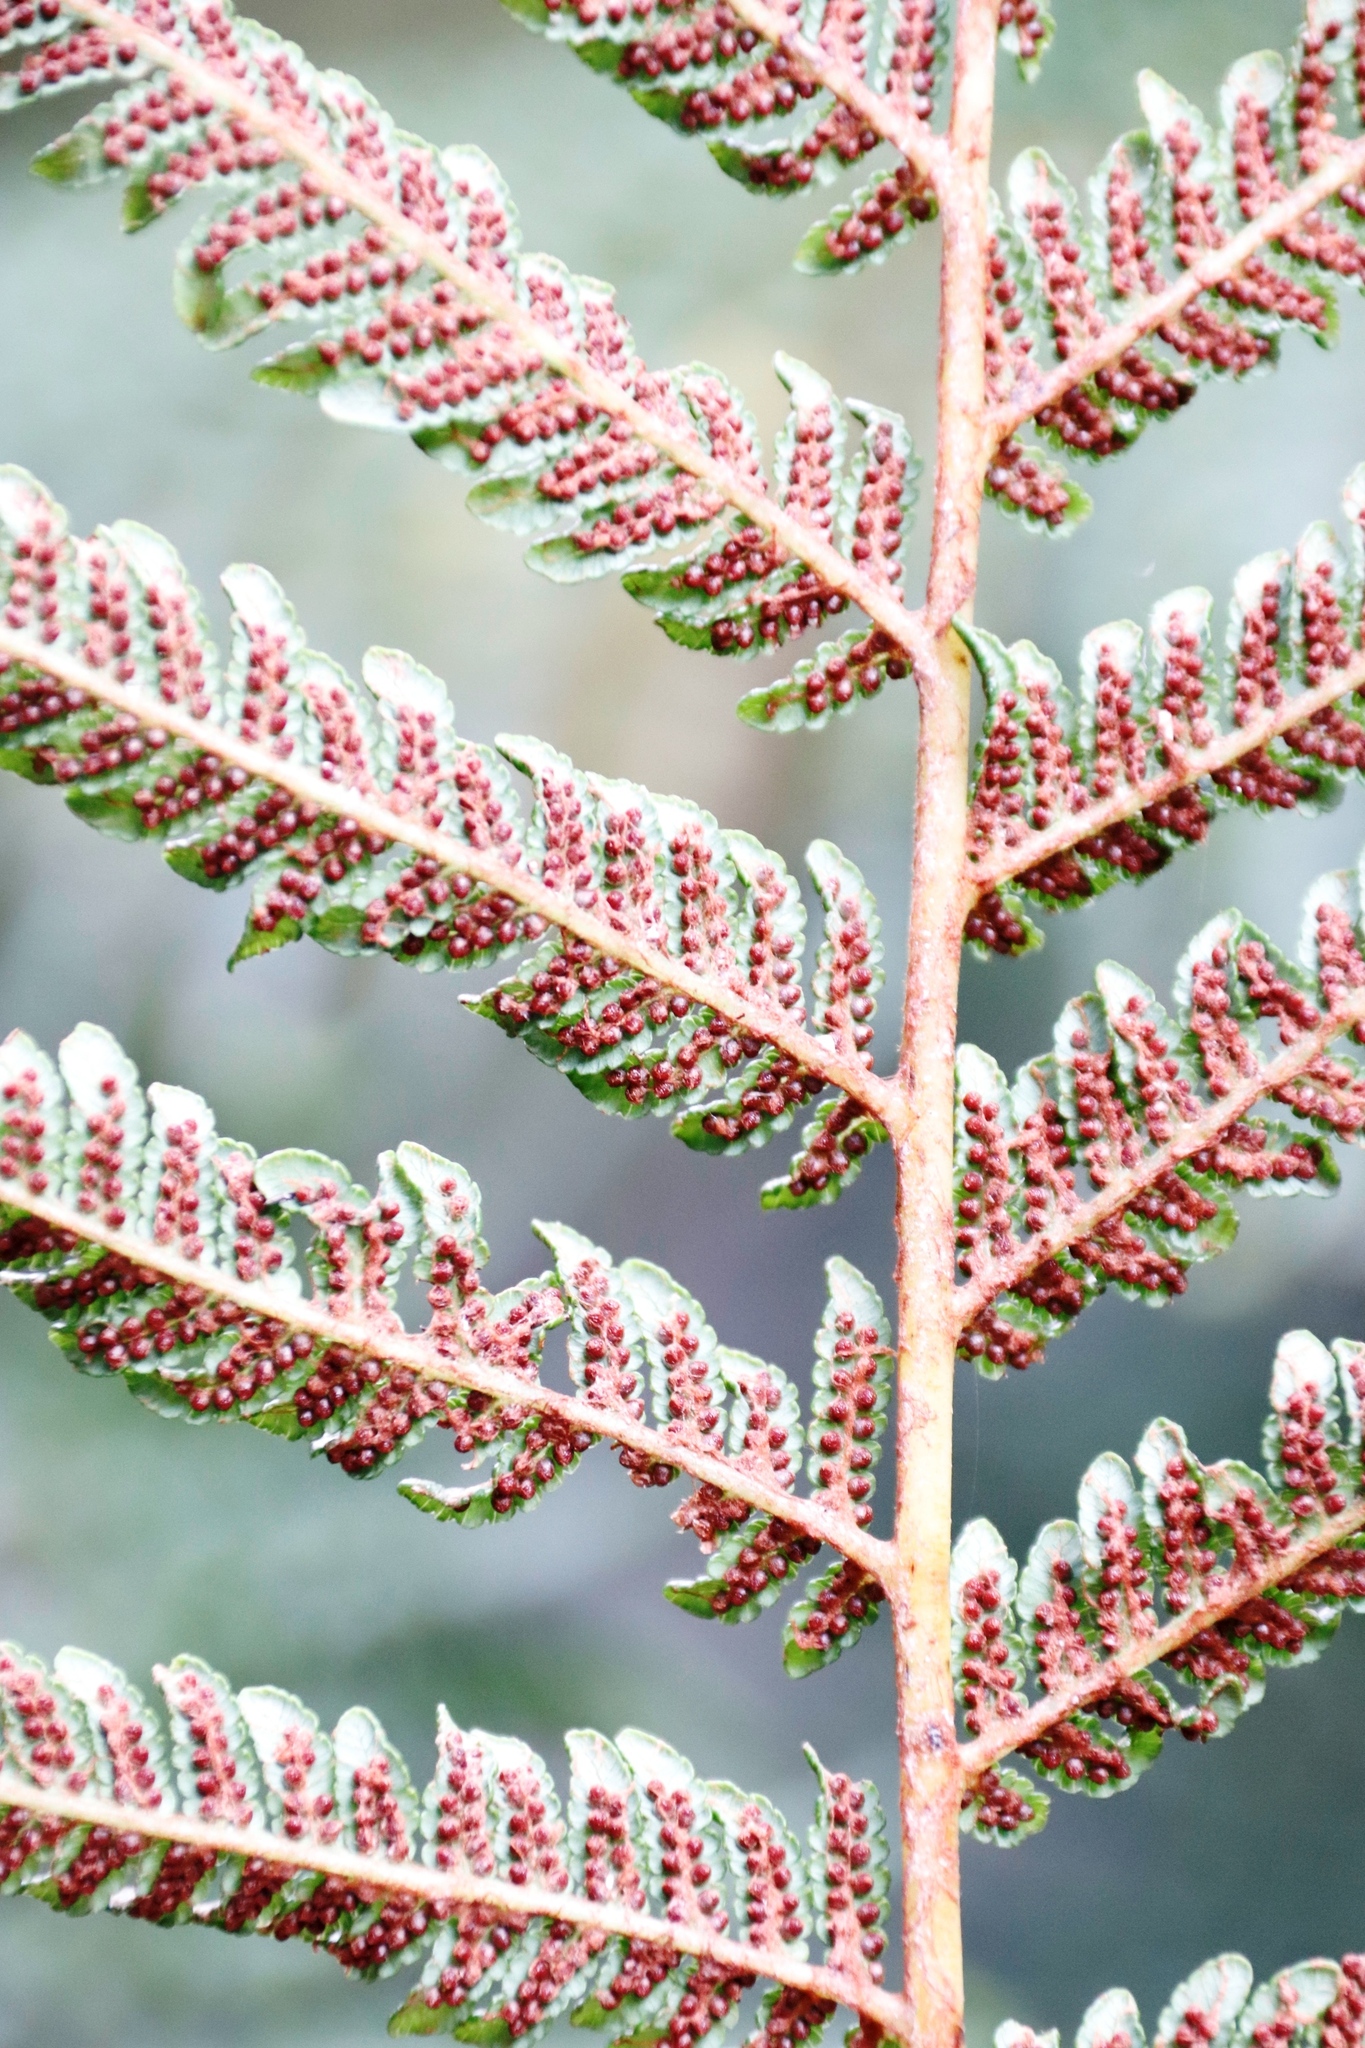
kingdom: Plantae
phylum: Tracheophyta
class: Polypodiopsida
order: Cyatheales
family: Cyatheaceae
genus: Alsophila
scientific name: Alsophila dregei
